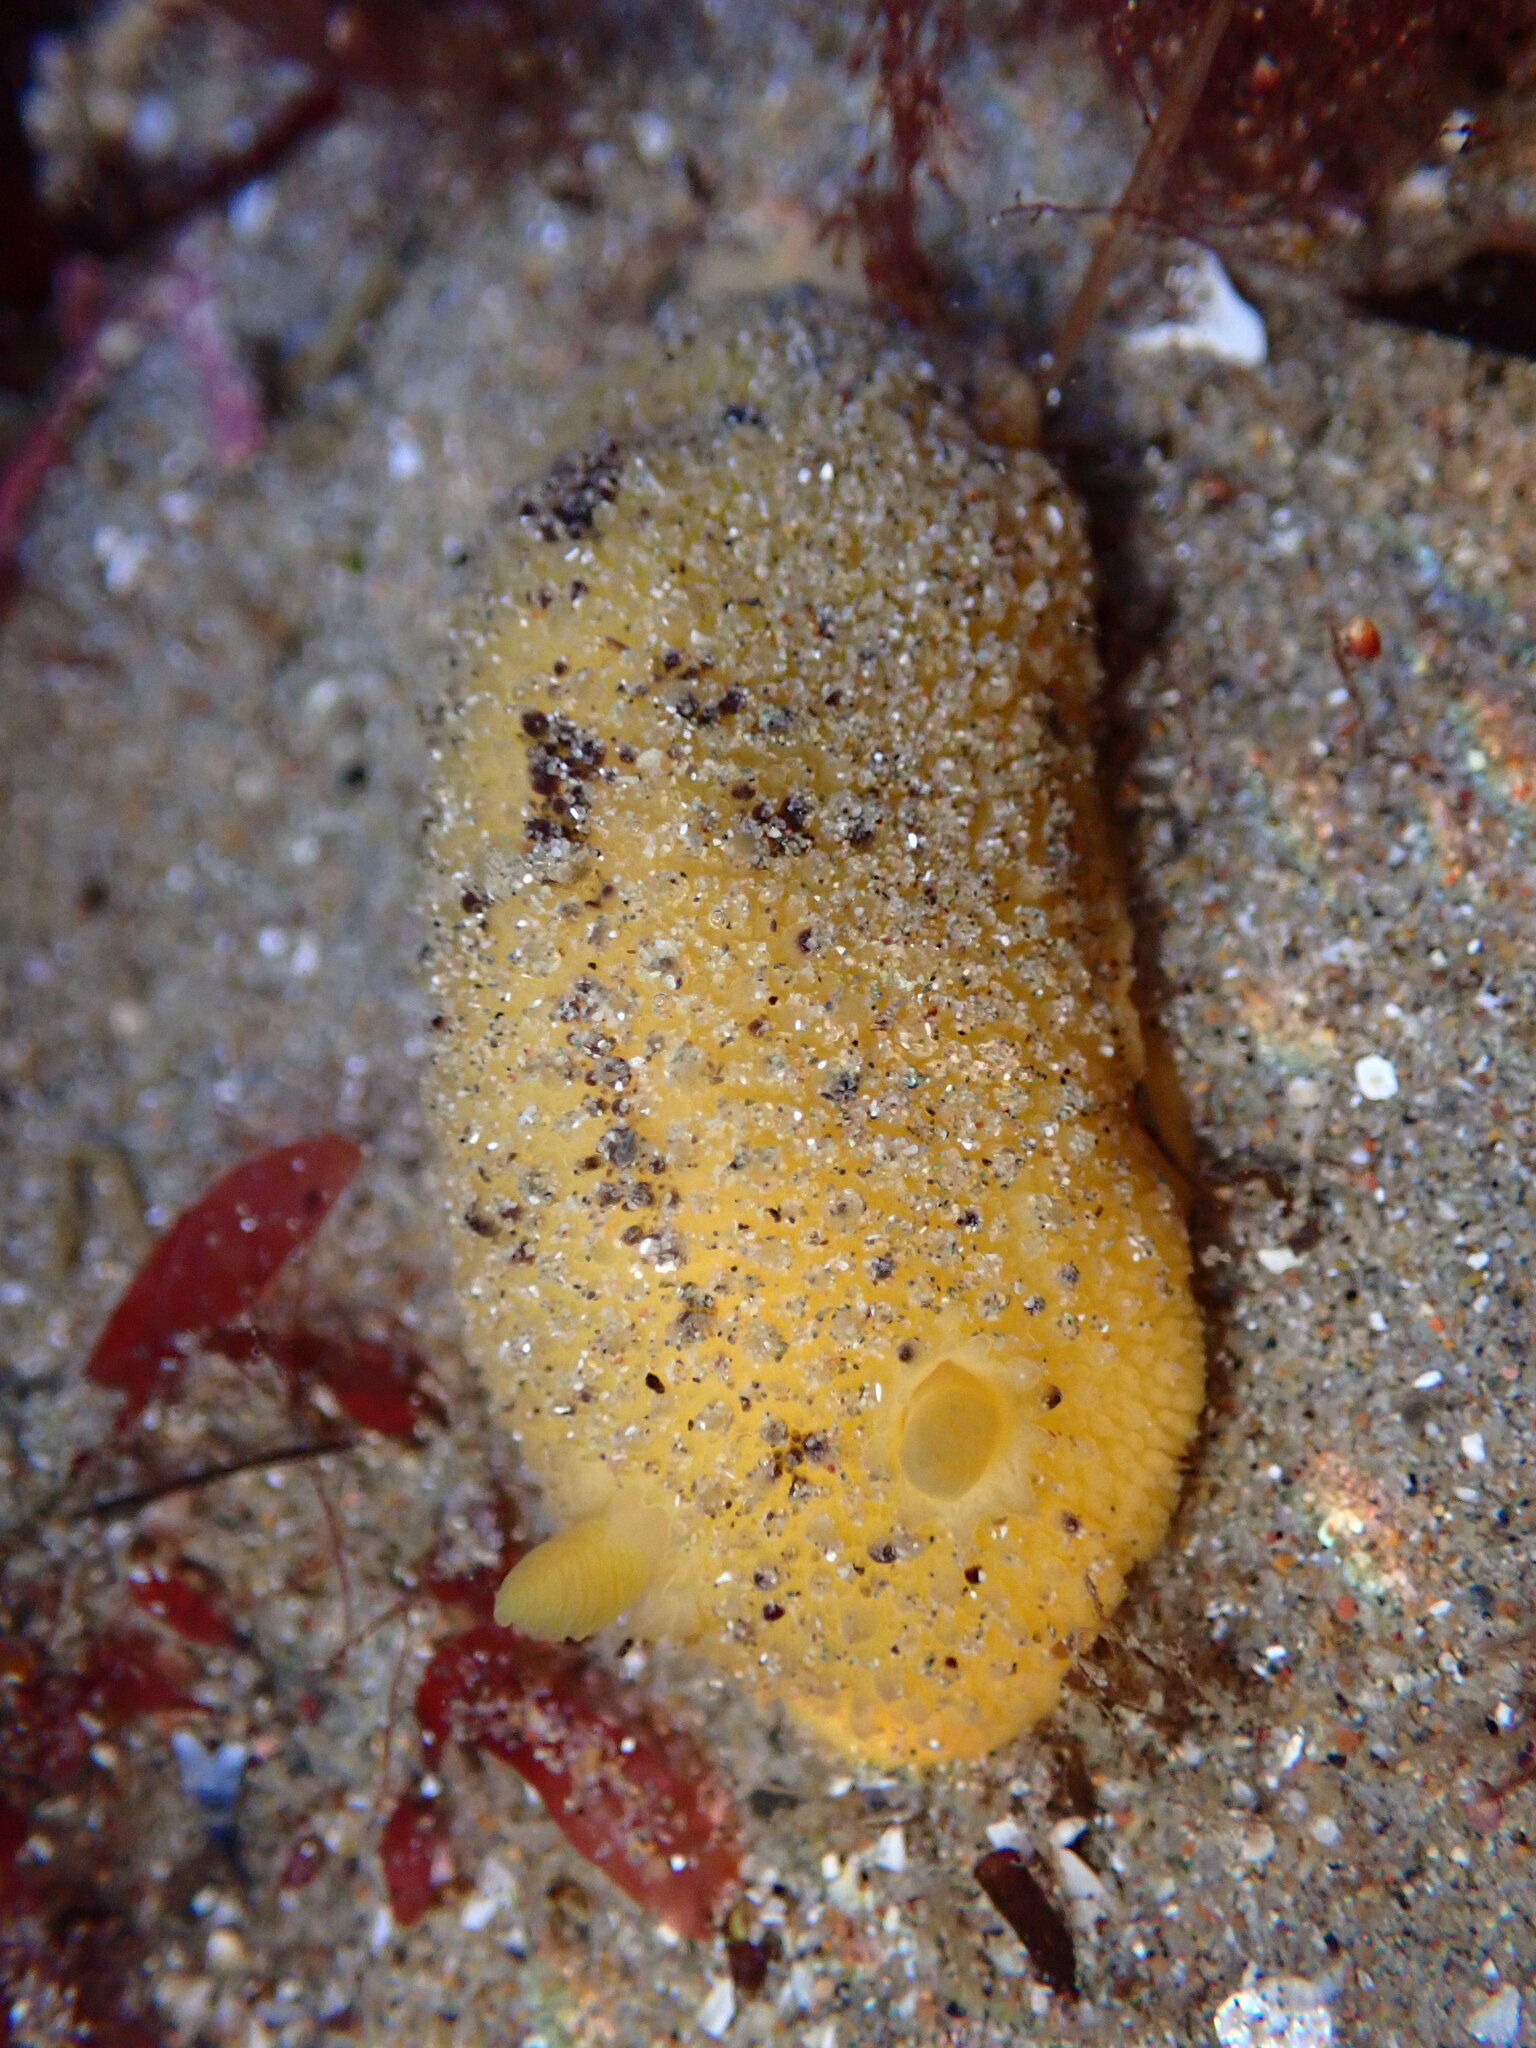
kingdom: Animalia
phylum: Mollusca
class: Gastropoda
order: Nudibranchia
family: Dorididae
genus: Doris
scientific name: Doris montereyensis
